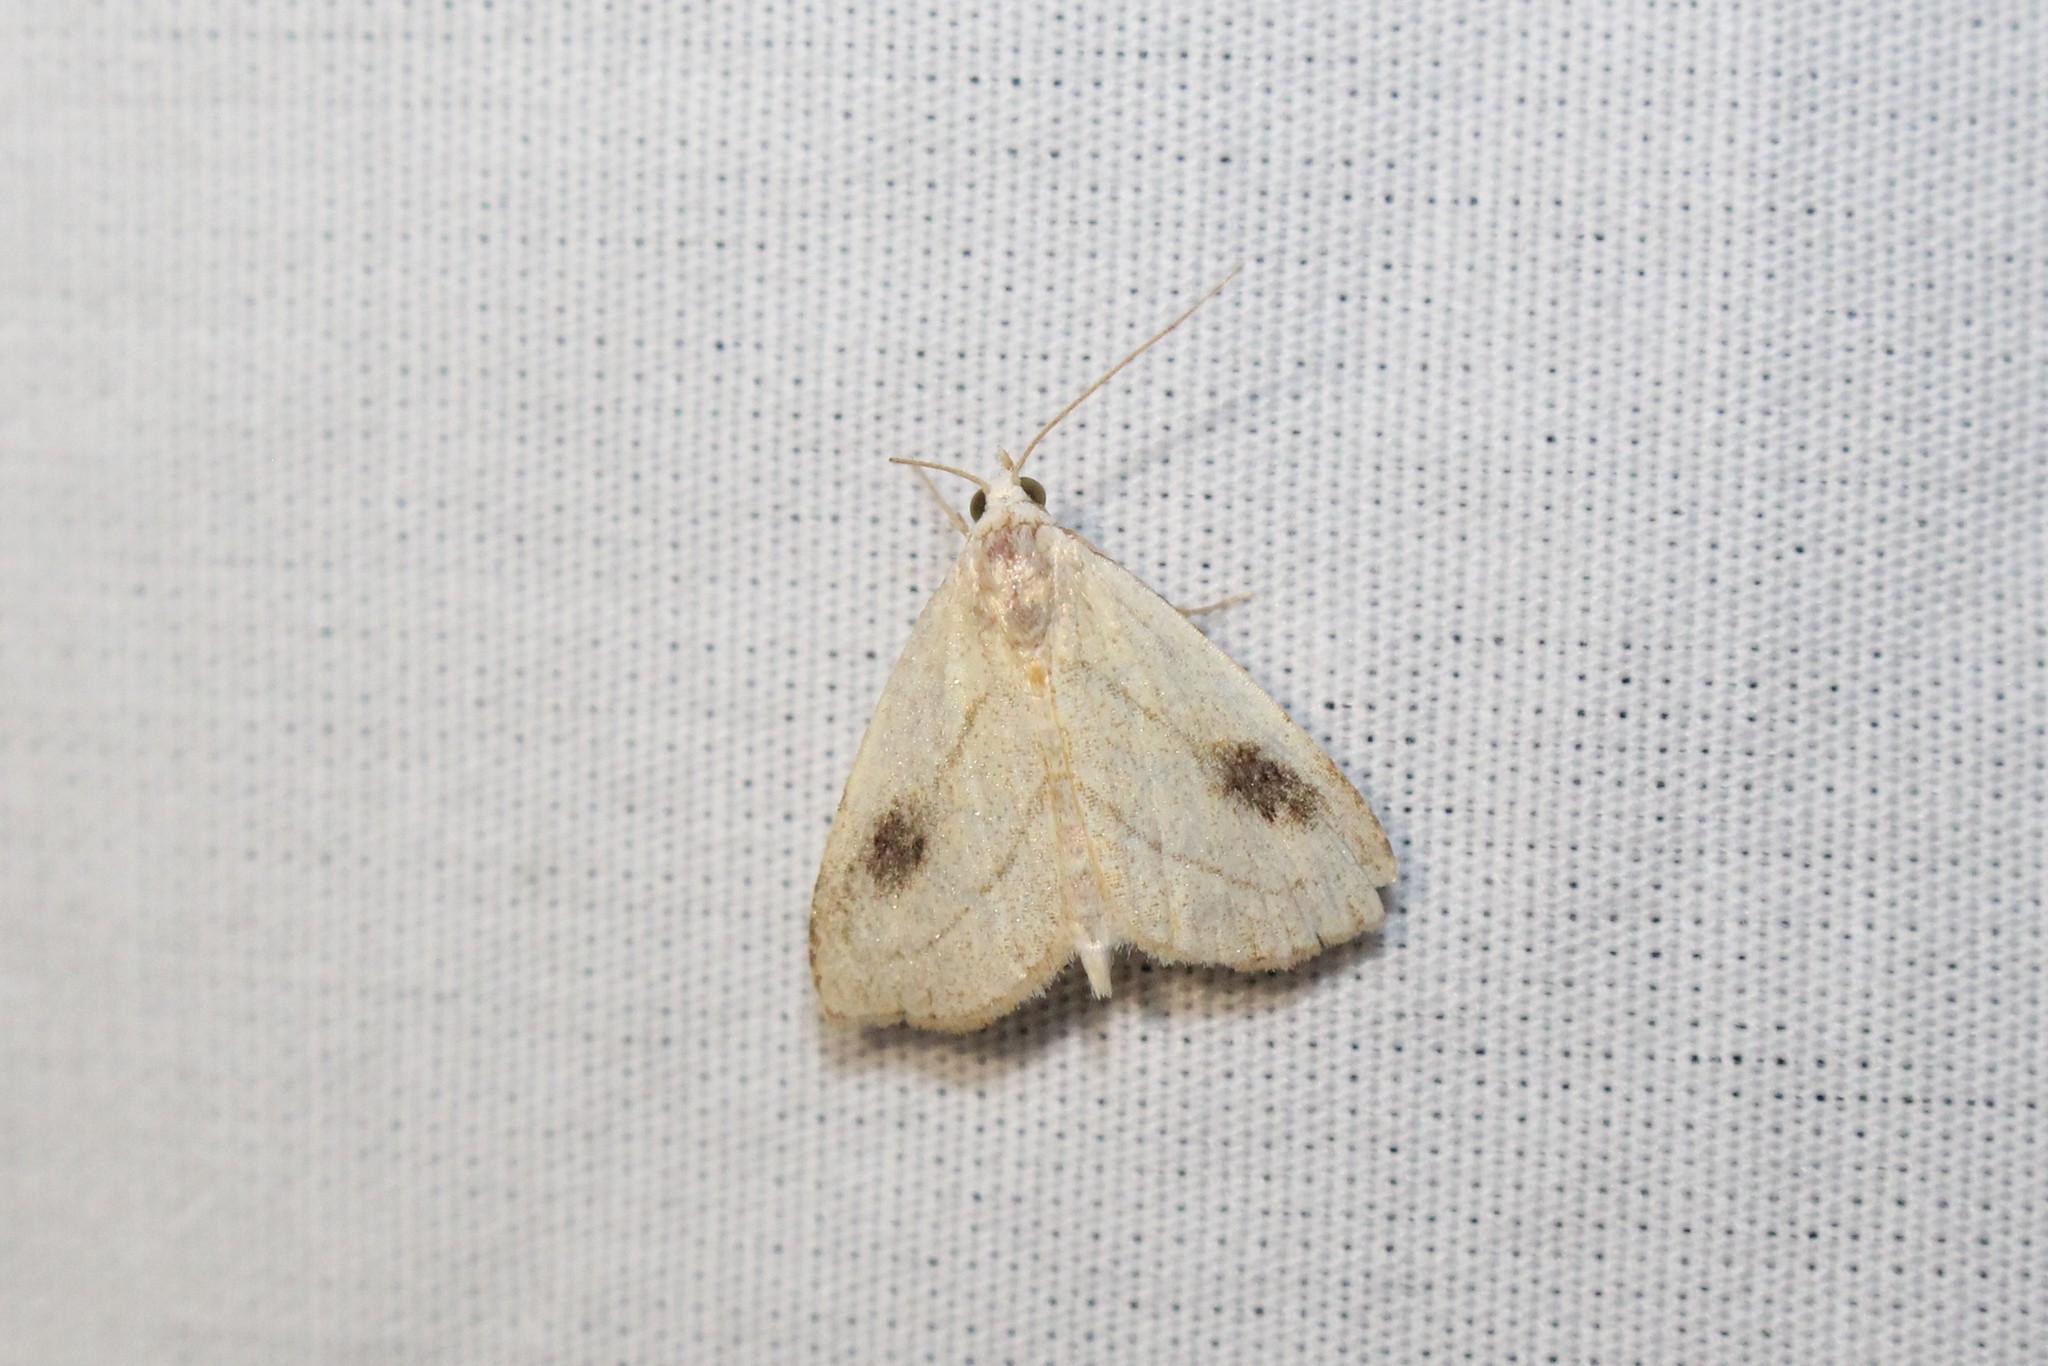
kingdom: Animalia
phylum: Arthropoda
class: Insecta
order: Lepidoptera
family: Erebidae
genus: Rivula
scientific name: Rivula propinqualis
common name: Spotted grass moth
